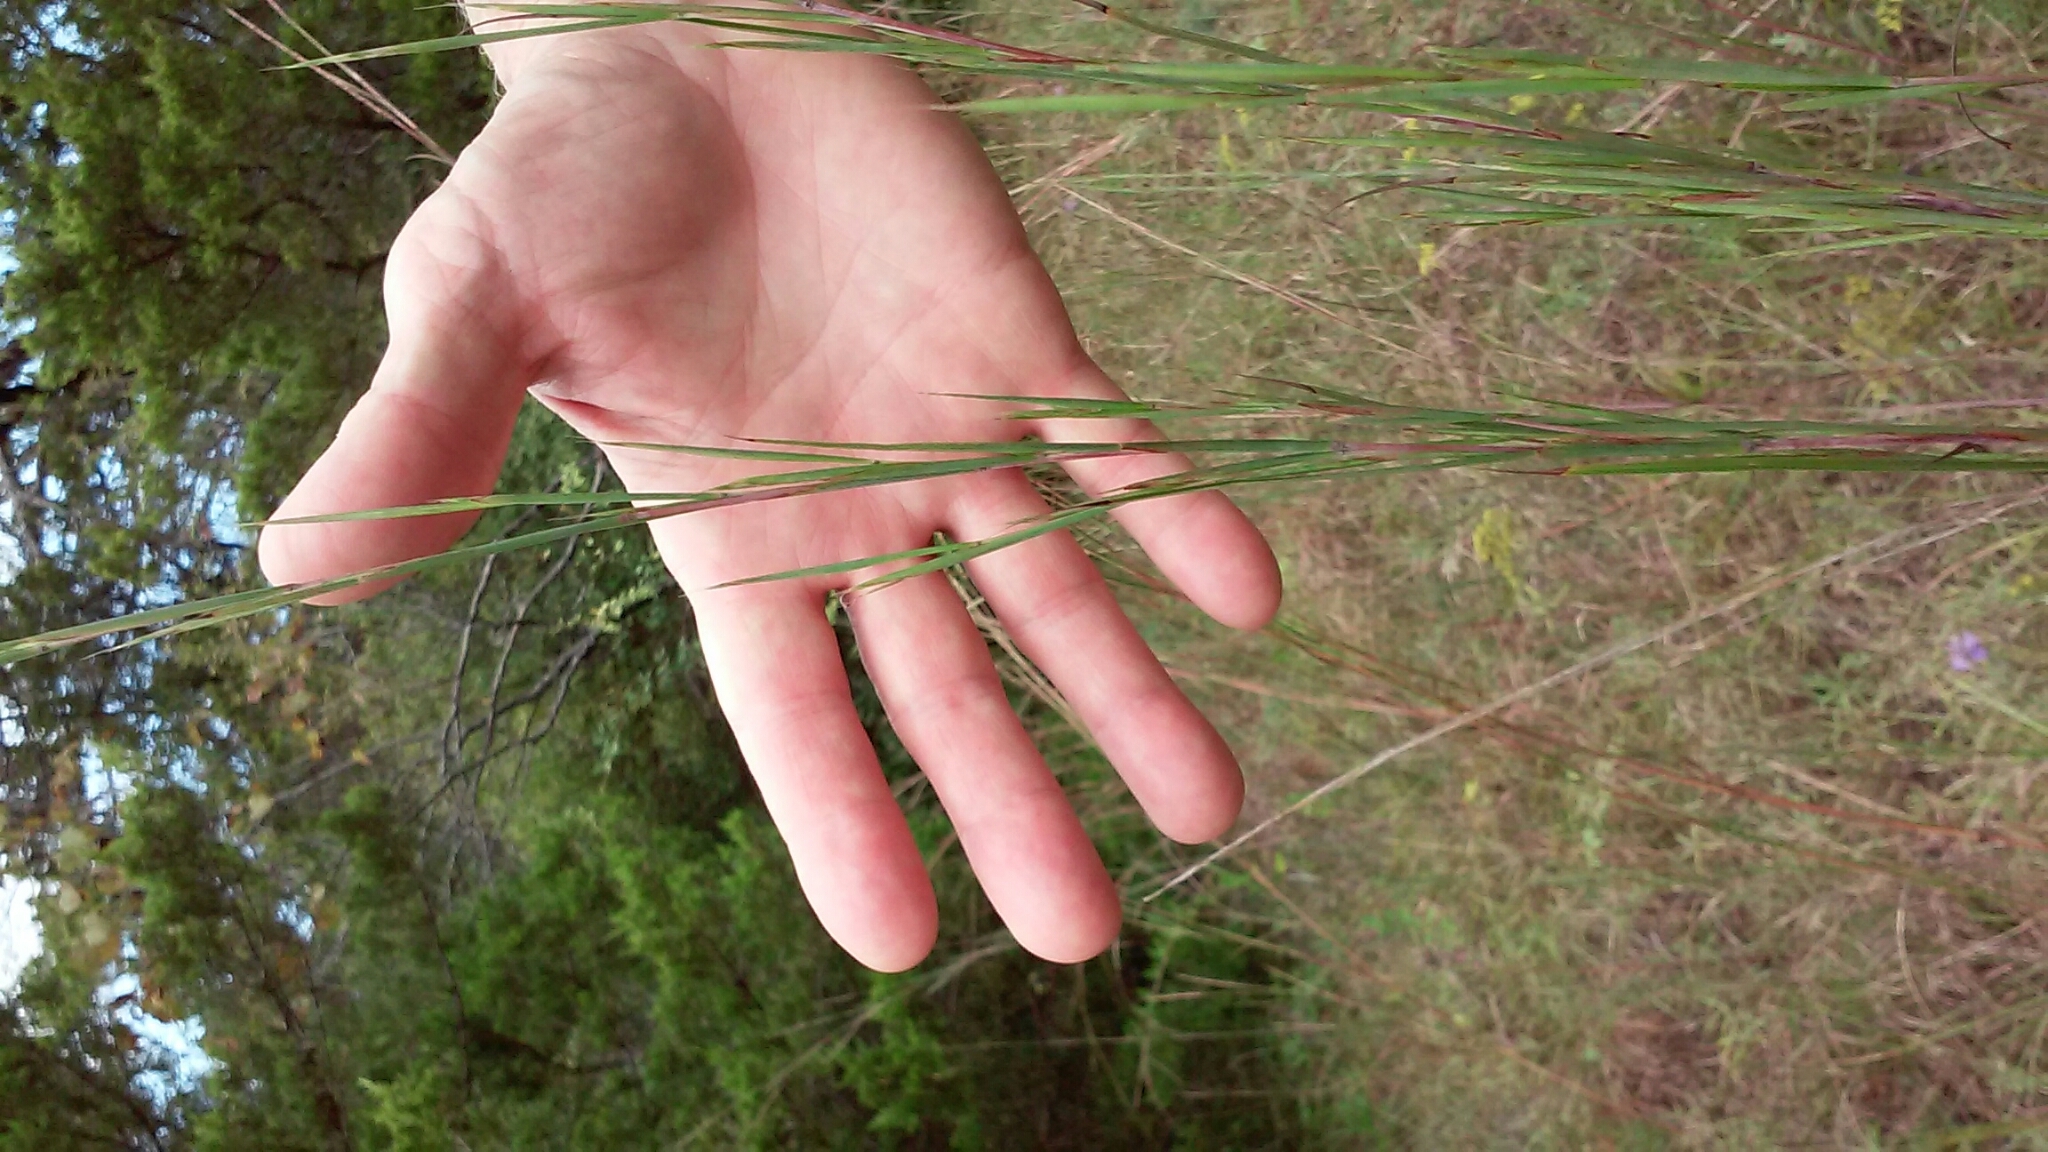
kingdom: Plantae
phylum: Tracheophyta
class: Liliopsida
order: Poales
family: Poaceae
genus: Schizachyrium
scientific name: Schizachyrium scoparium
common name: Little bluestem
